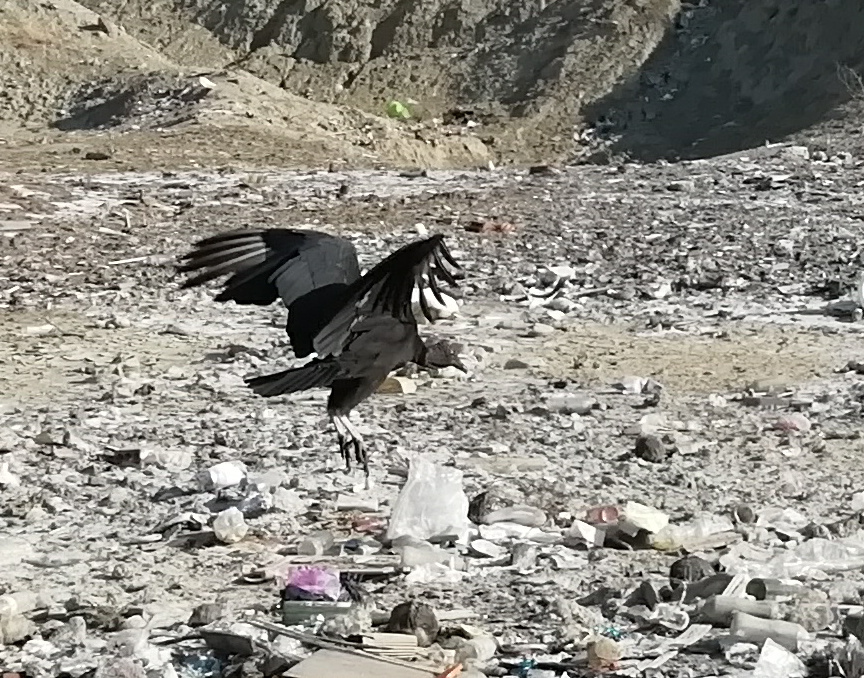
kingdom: Animalia
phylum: Chordata
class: Aves
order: Accipitriformes
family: Cathartidae
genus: Coragyps
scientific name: Coragyps atratus
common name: Black vulture
